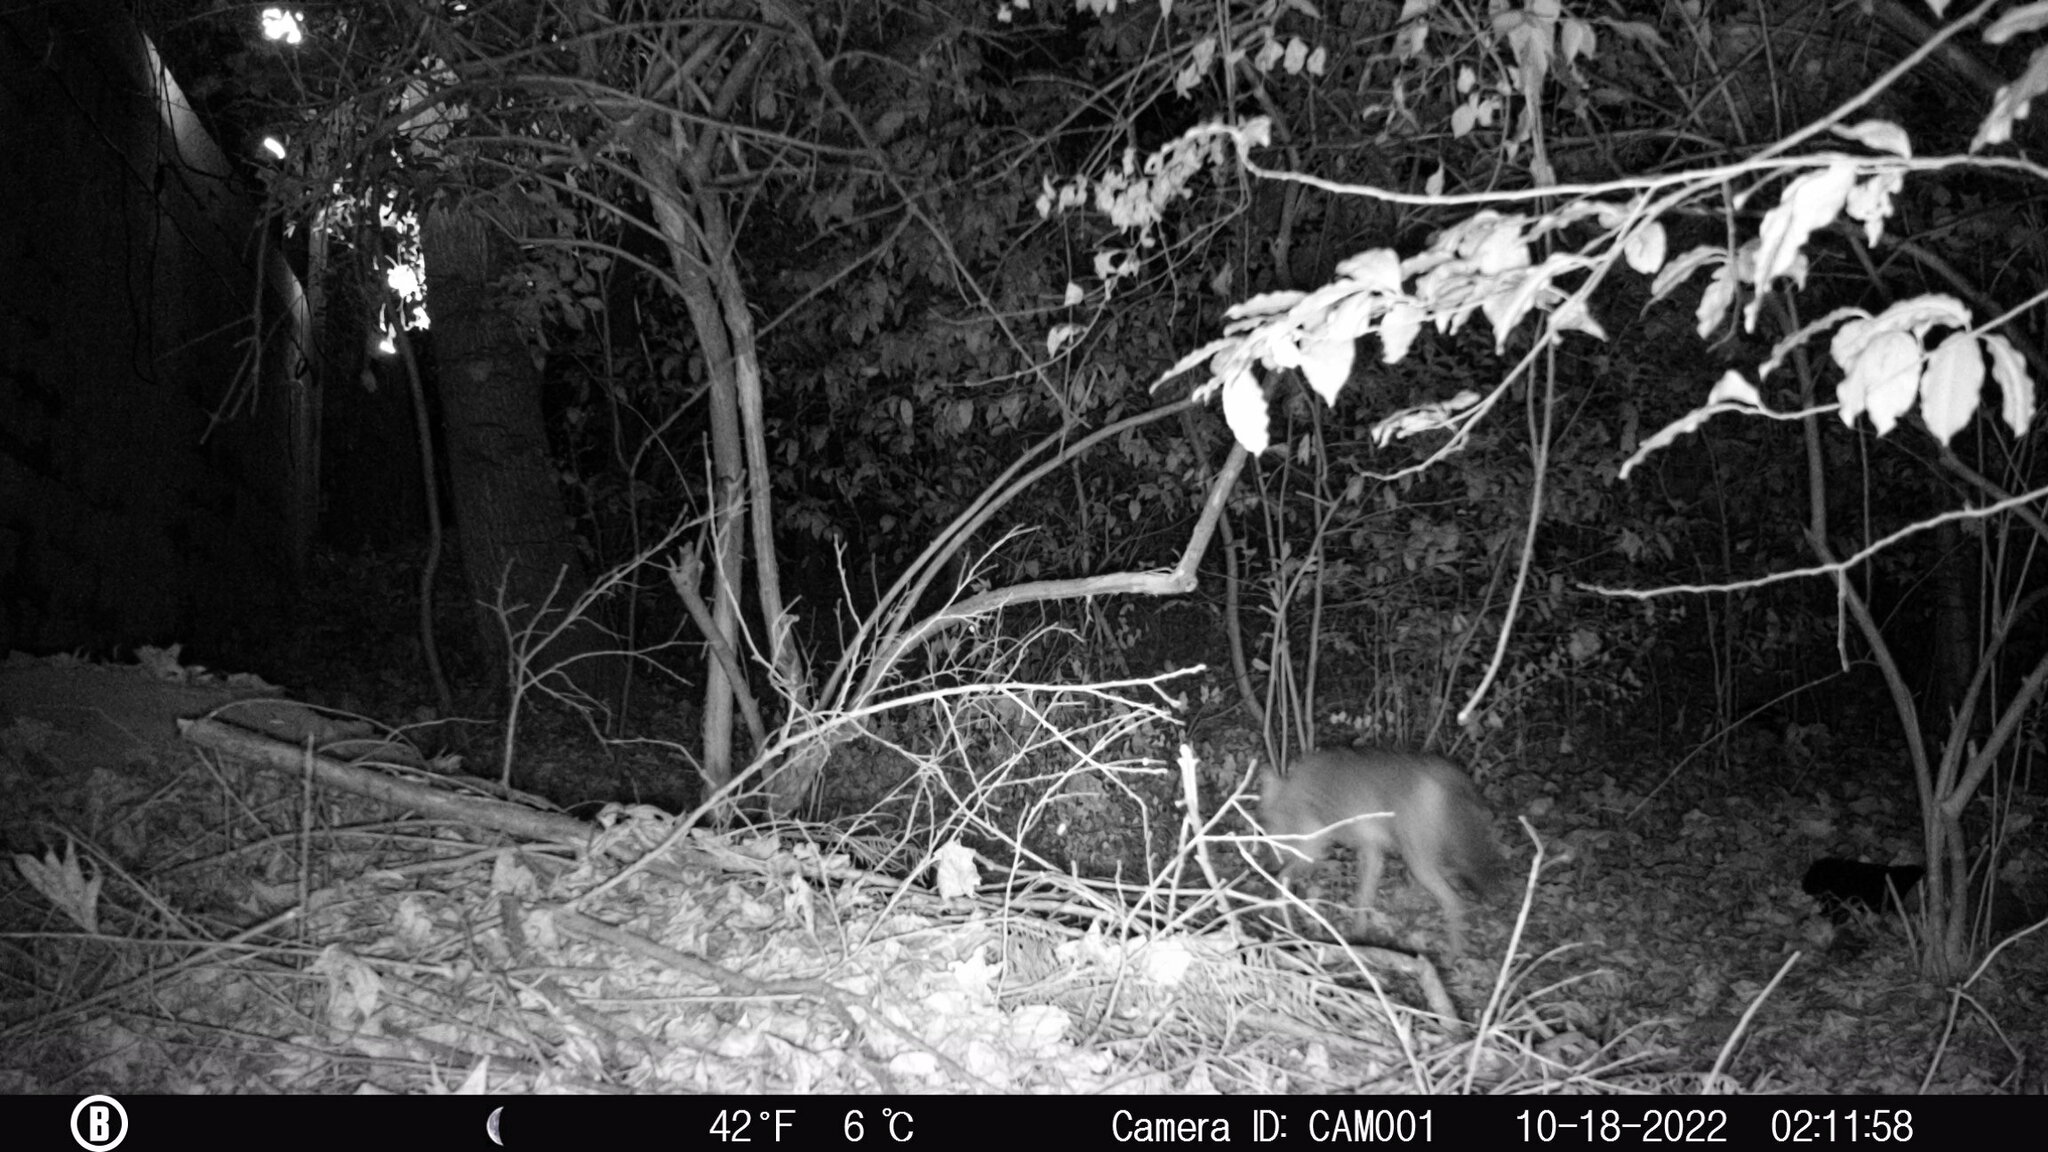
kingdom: Animalia
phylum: Chordata
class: Mammalia
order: Carnivora
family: Canidae
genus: Canis
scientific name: Canis latrans
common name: Coyote
